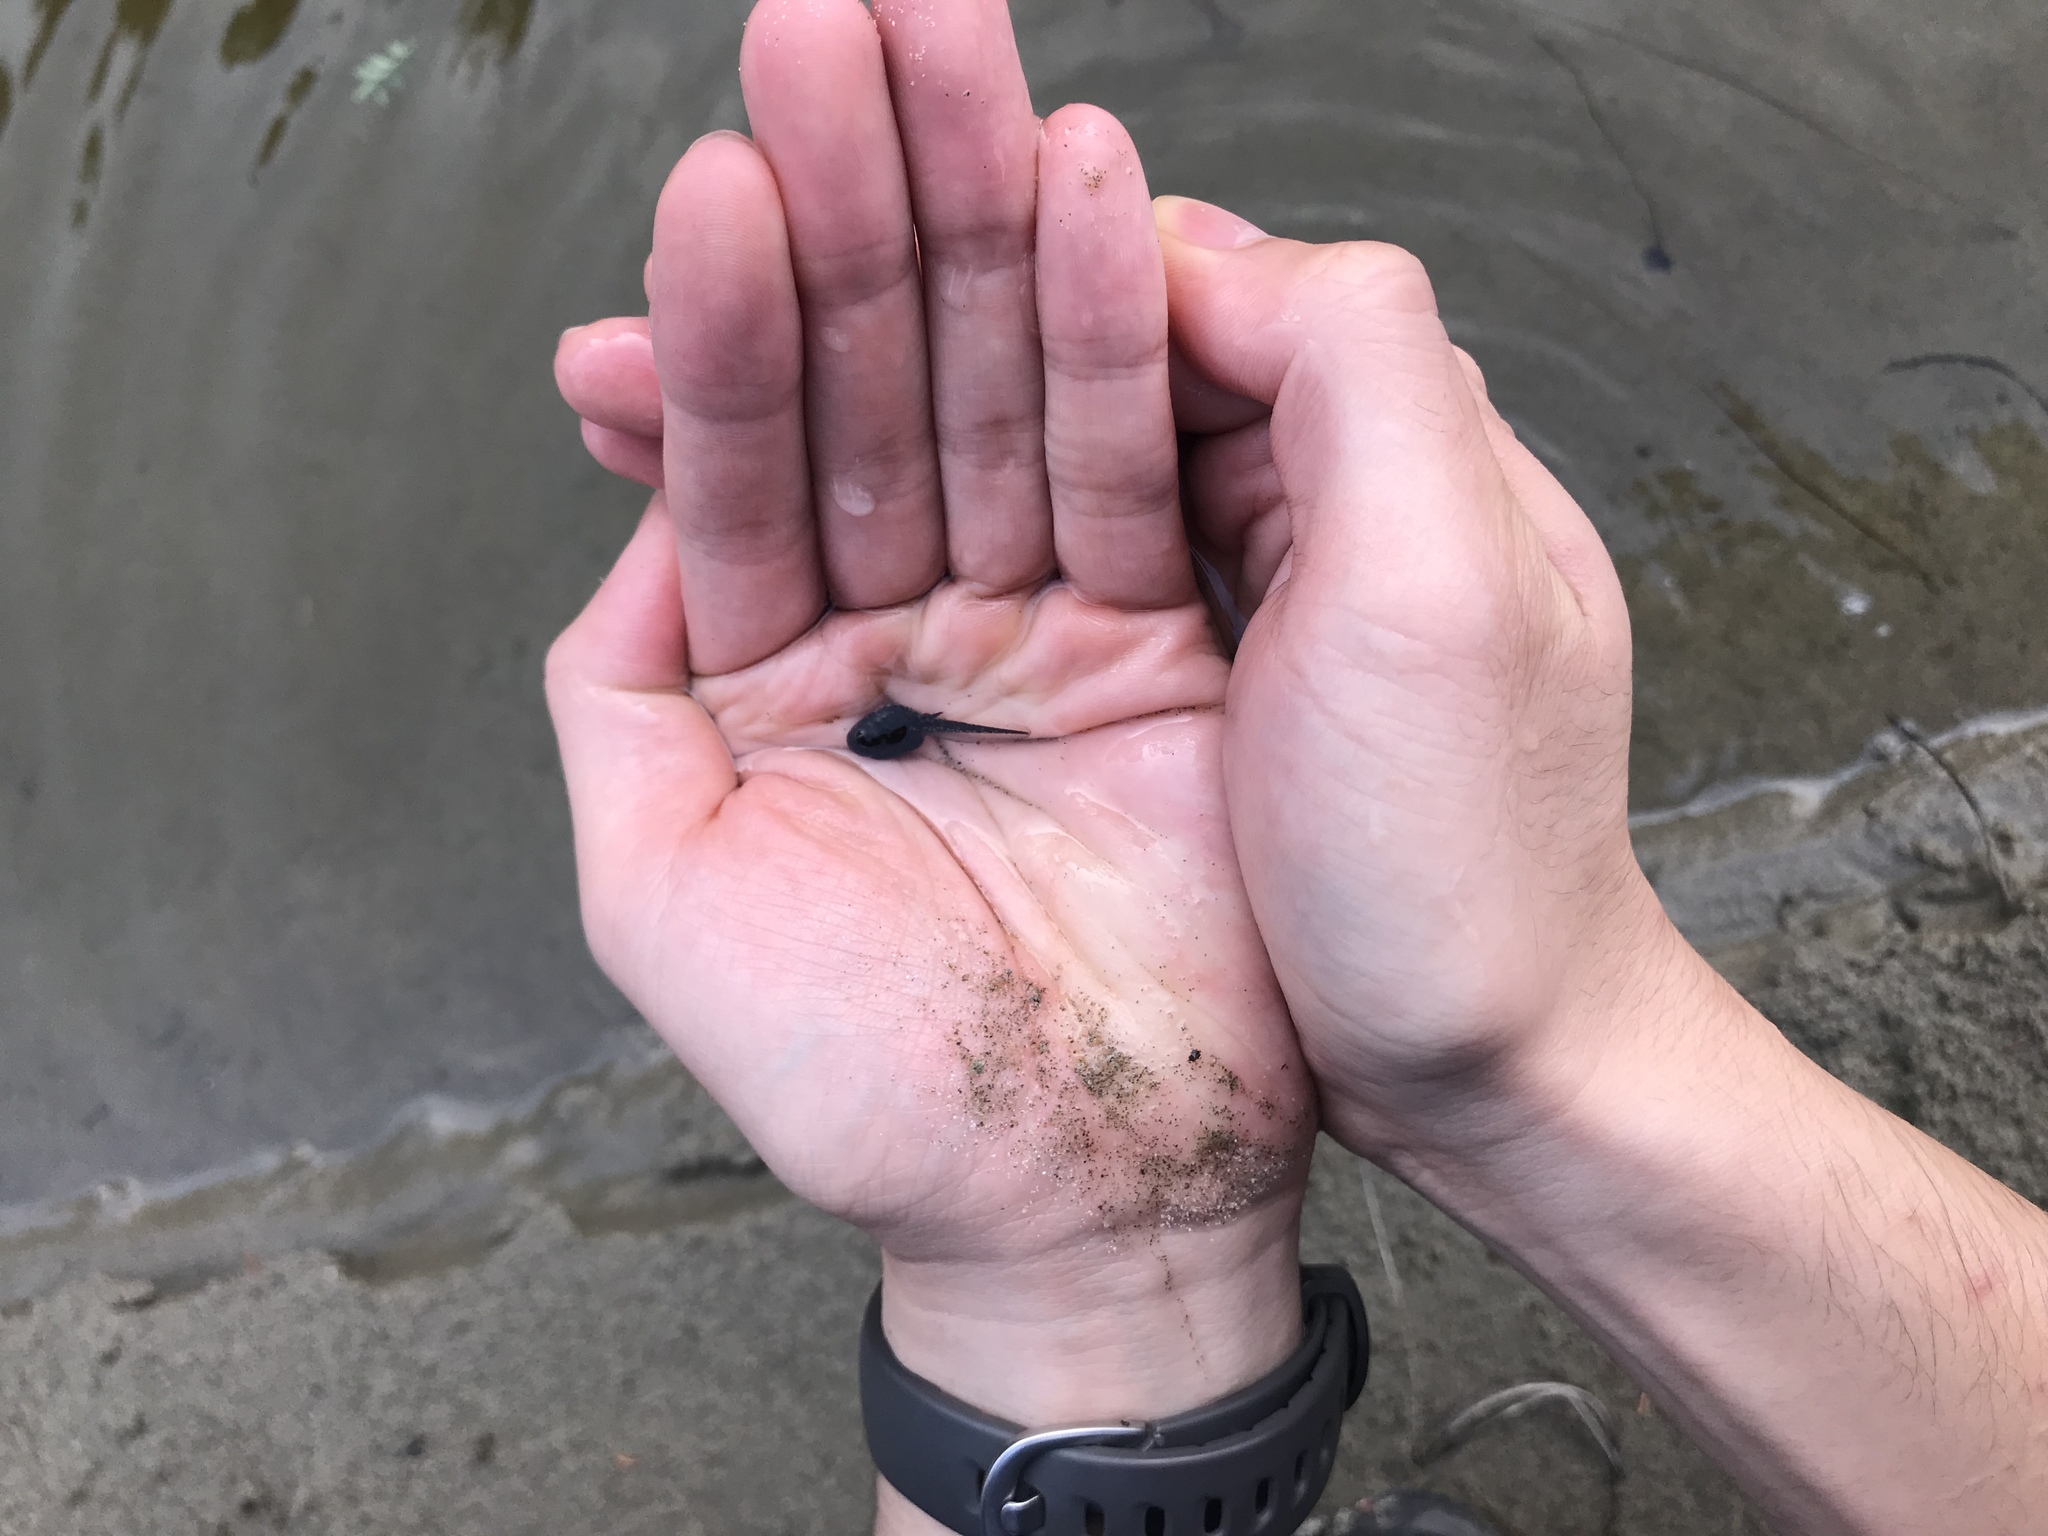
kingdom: Animalia
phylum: Chordata
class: Amphibia
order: Anura
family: Bufonidae
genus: Anaxyrus
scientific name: Anaxyrus americanus
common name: American toad
